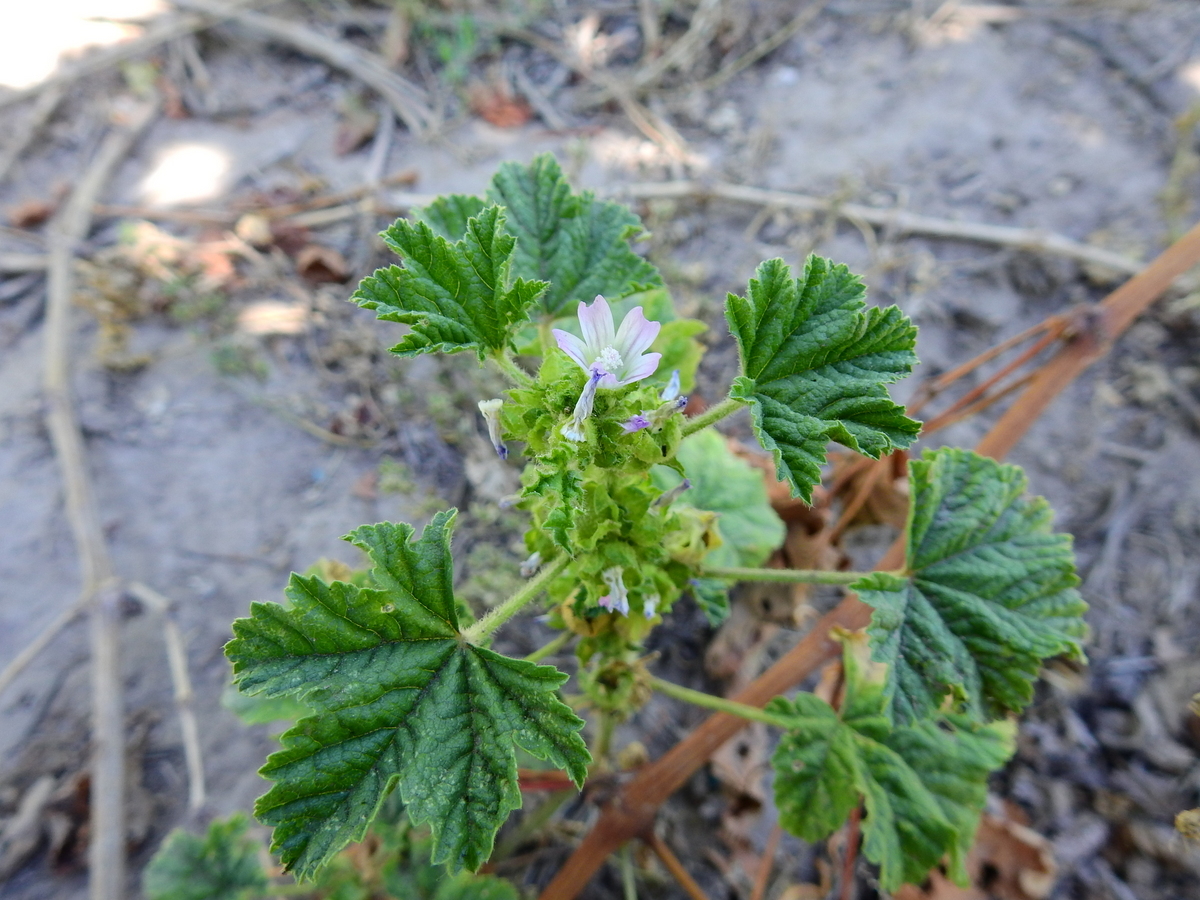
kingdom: Plantae
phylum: Tracheophyta
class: Magnoliopsida
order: Malvales
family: Malvaceae
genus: Malva
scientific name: Malva parviflora
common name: Least mallow
